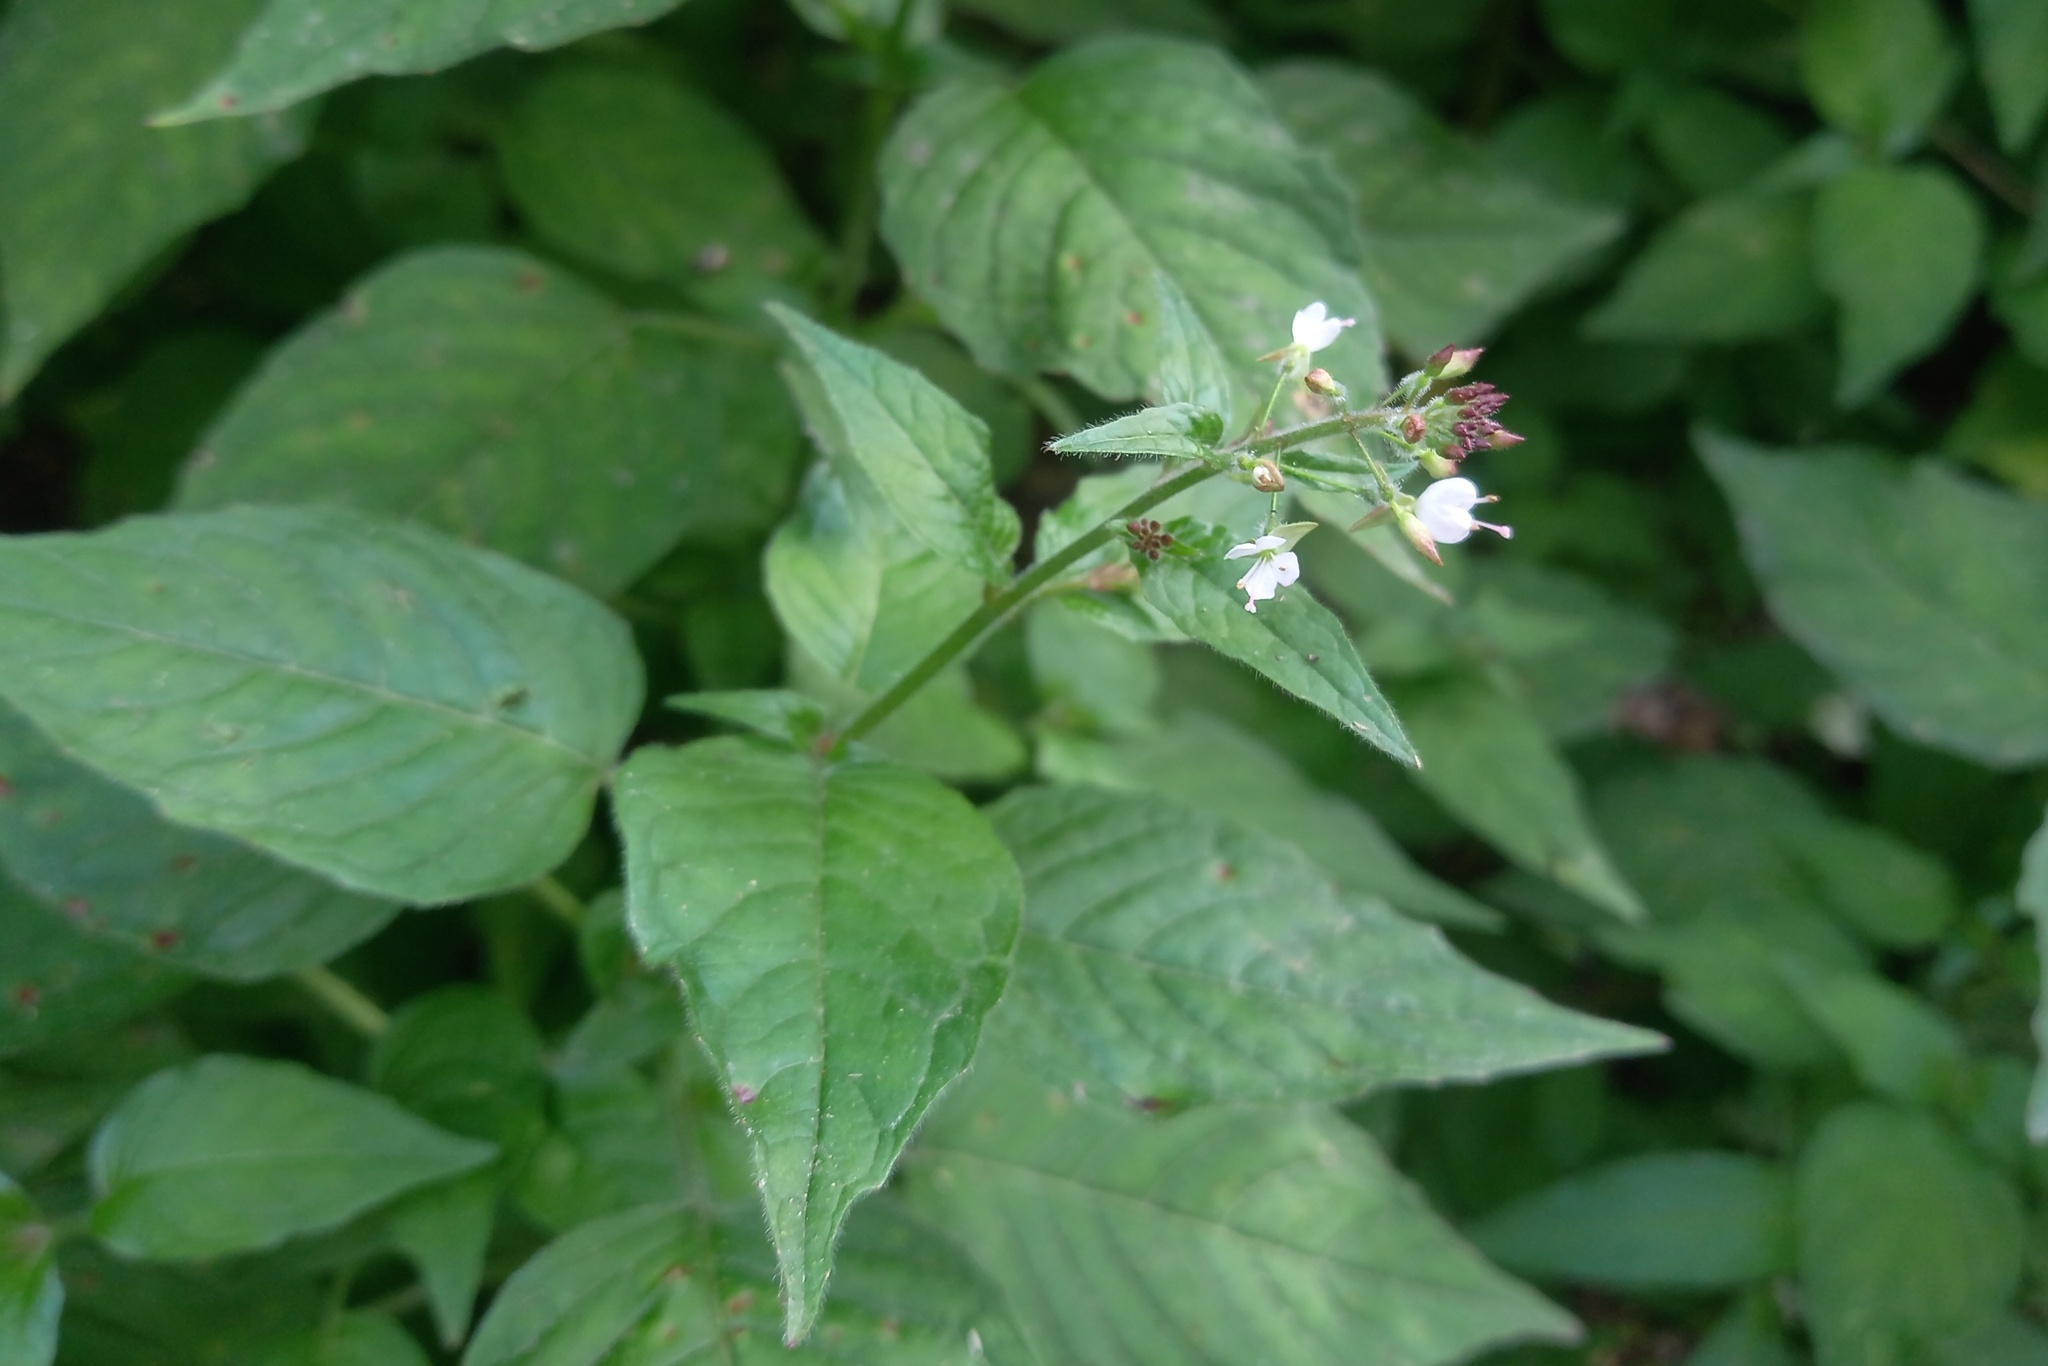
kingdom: Plantae
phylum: Tracheophyta
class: Magnoliopsida
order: Myrtales
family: Onagraceae
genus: Circaea
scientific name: Circaea lutetiana
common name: Enchanter's-nightshade
